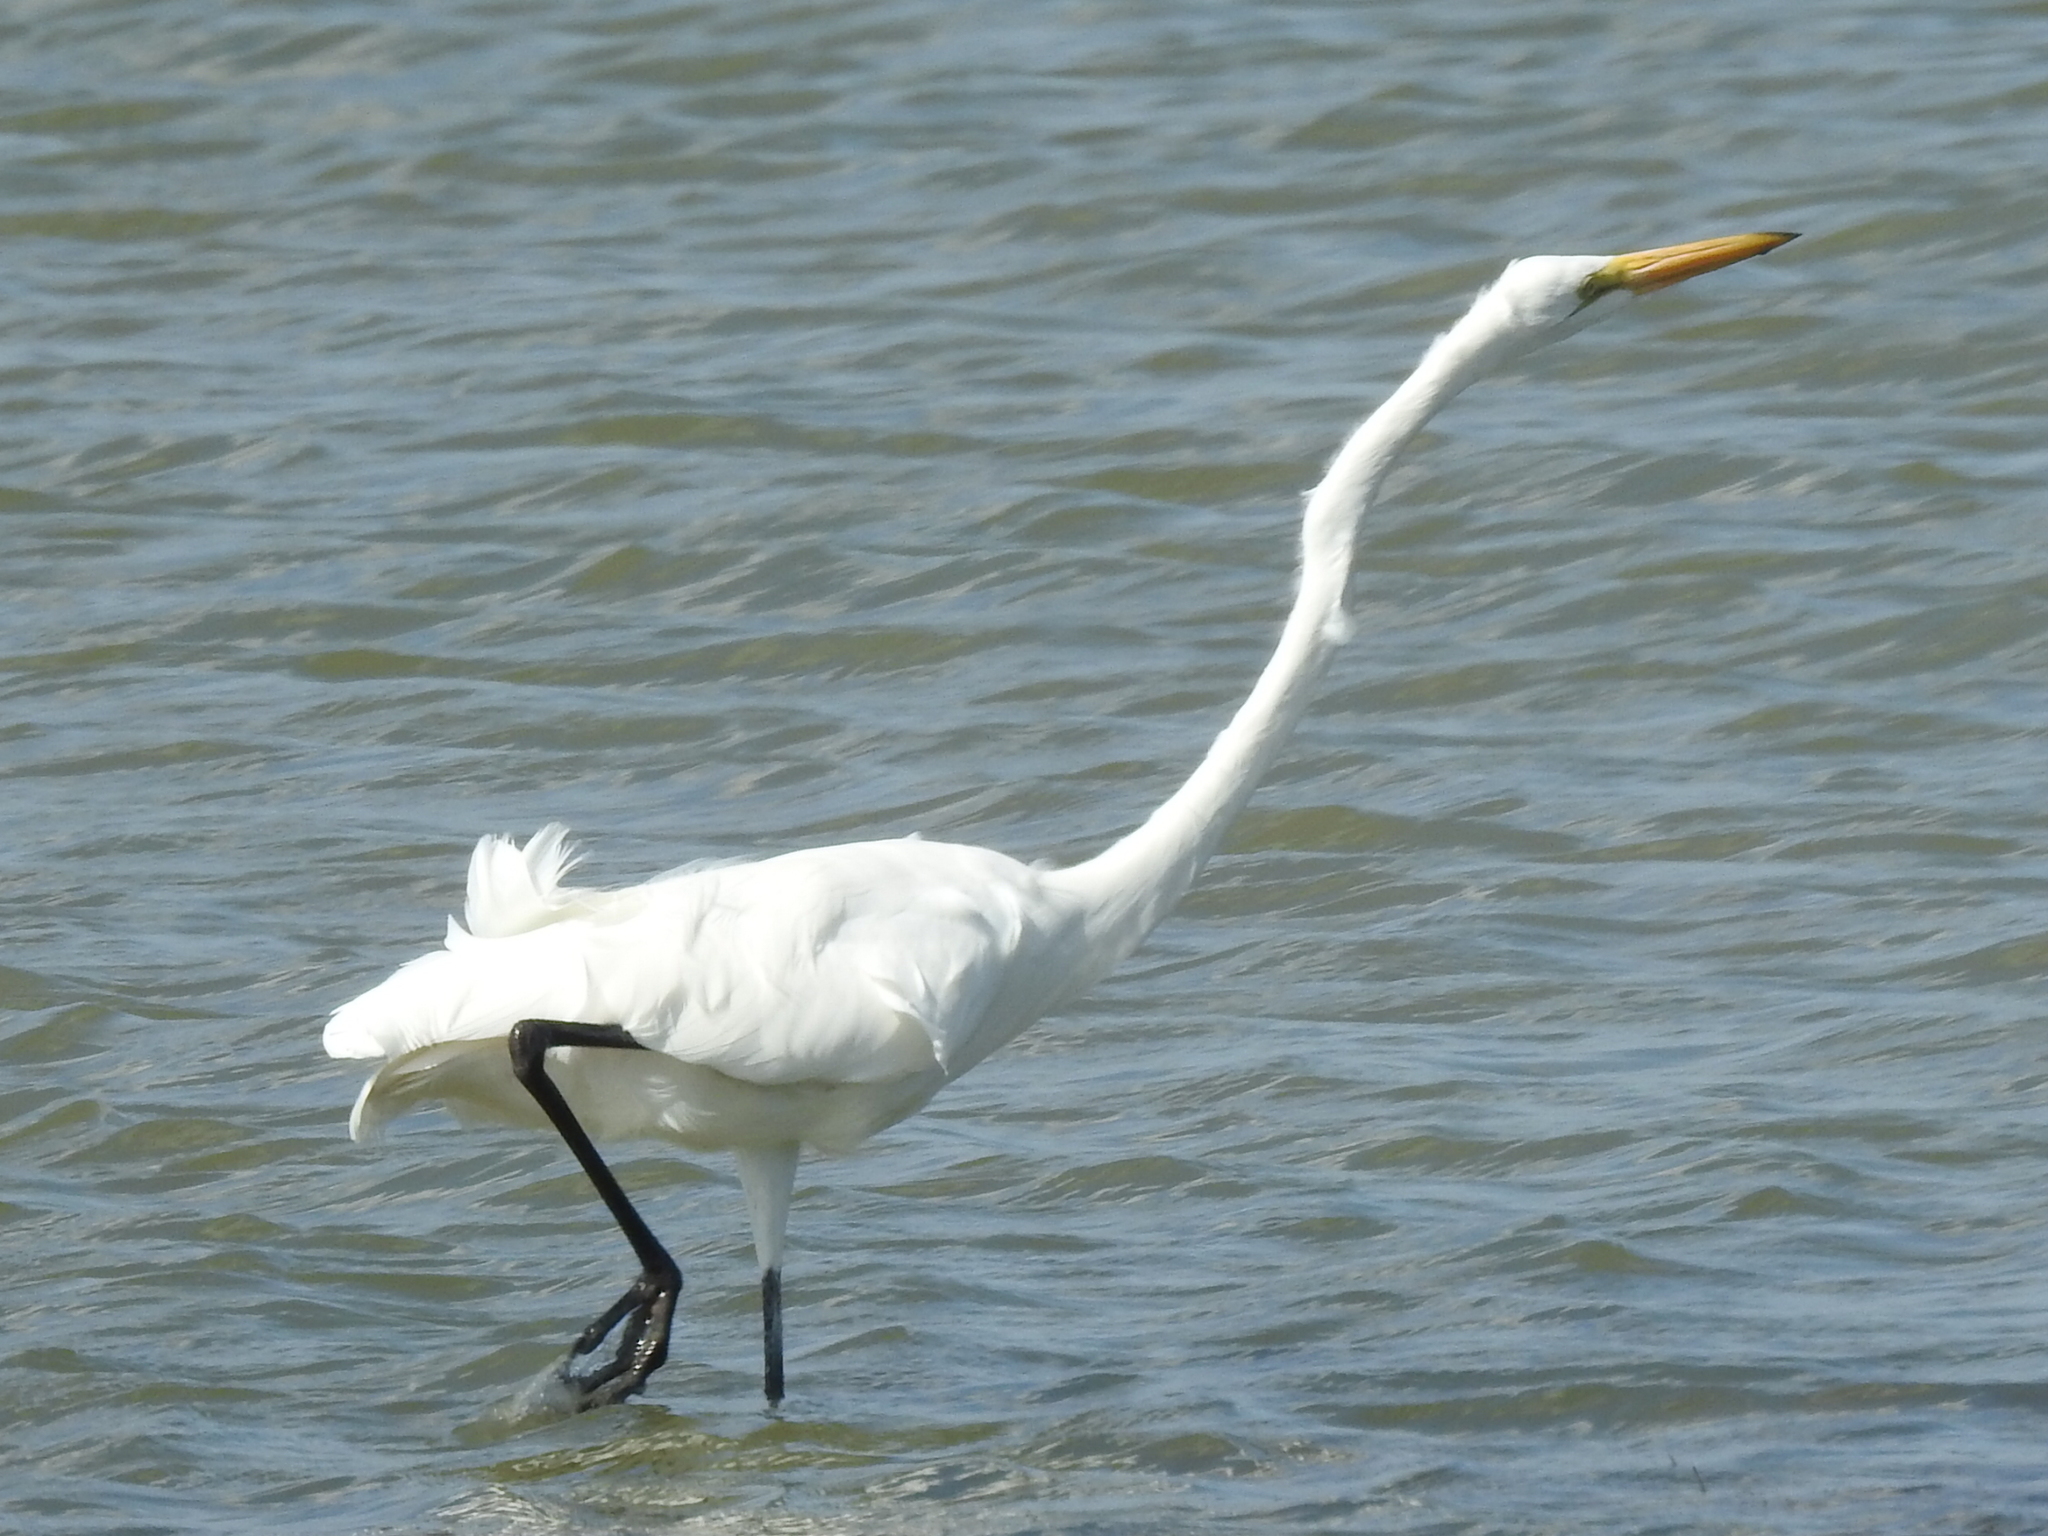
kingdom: Animalia
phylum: Chordata
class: Aves
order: Pelecaniformes
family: Ardeidae
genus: Ardea
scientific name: Ardea alba
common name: Great egret
